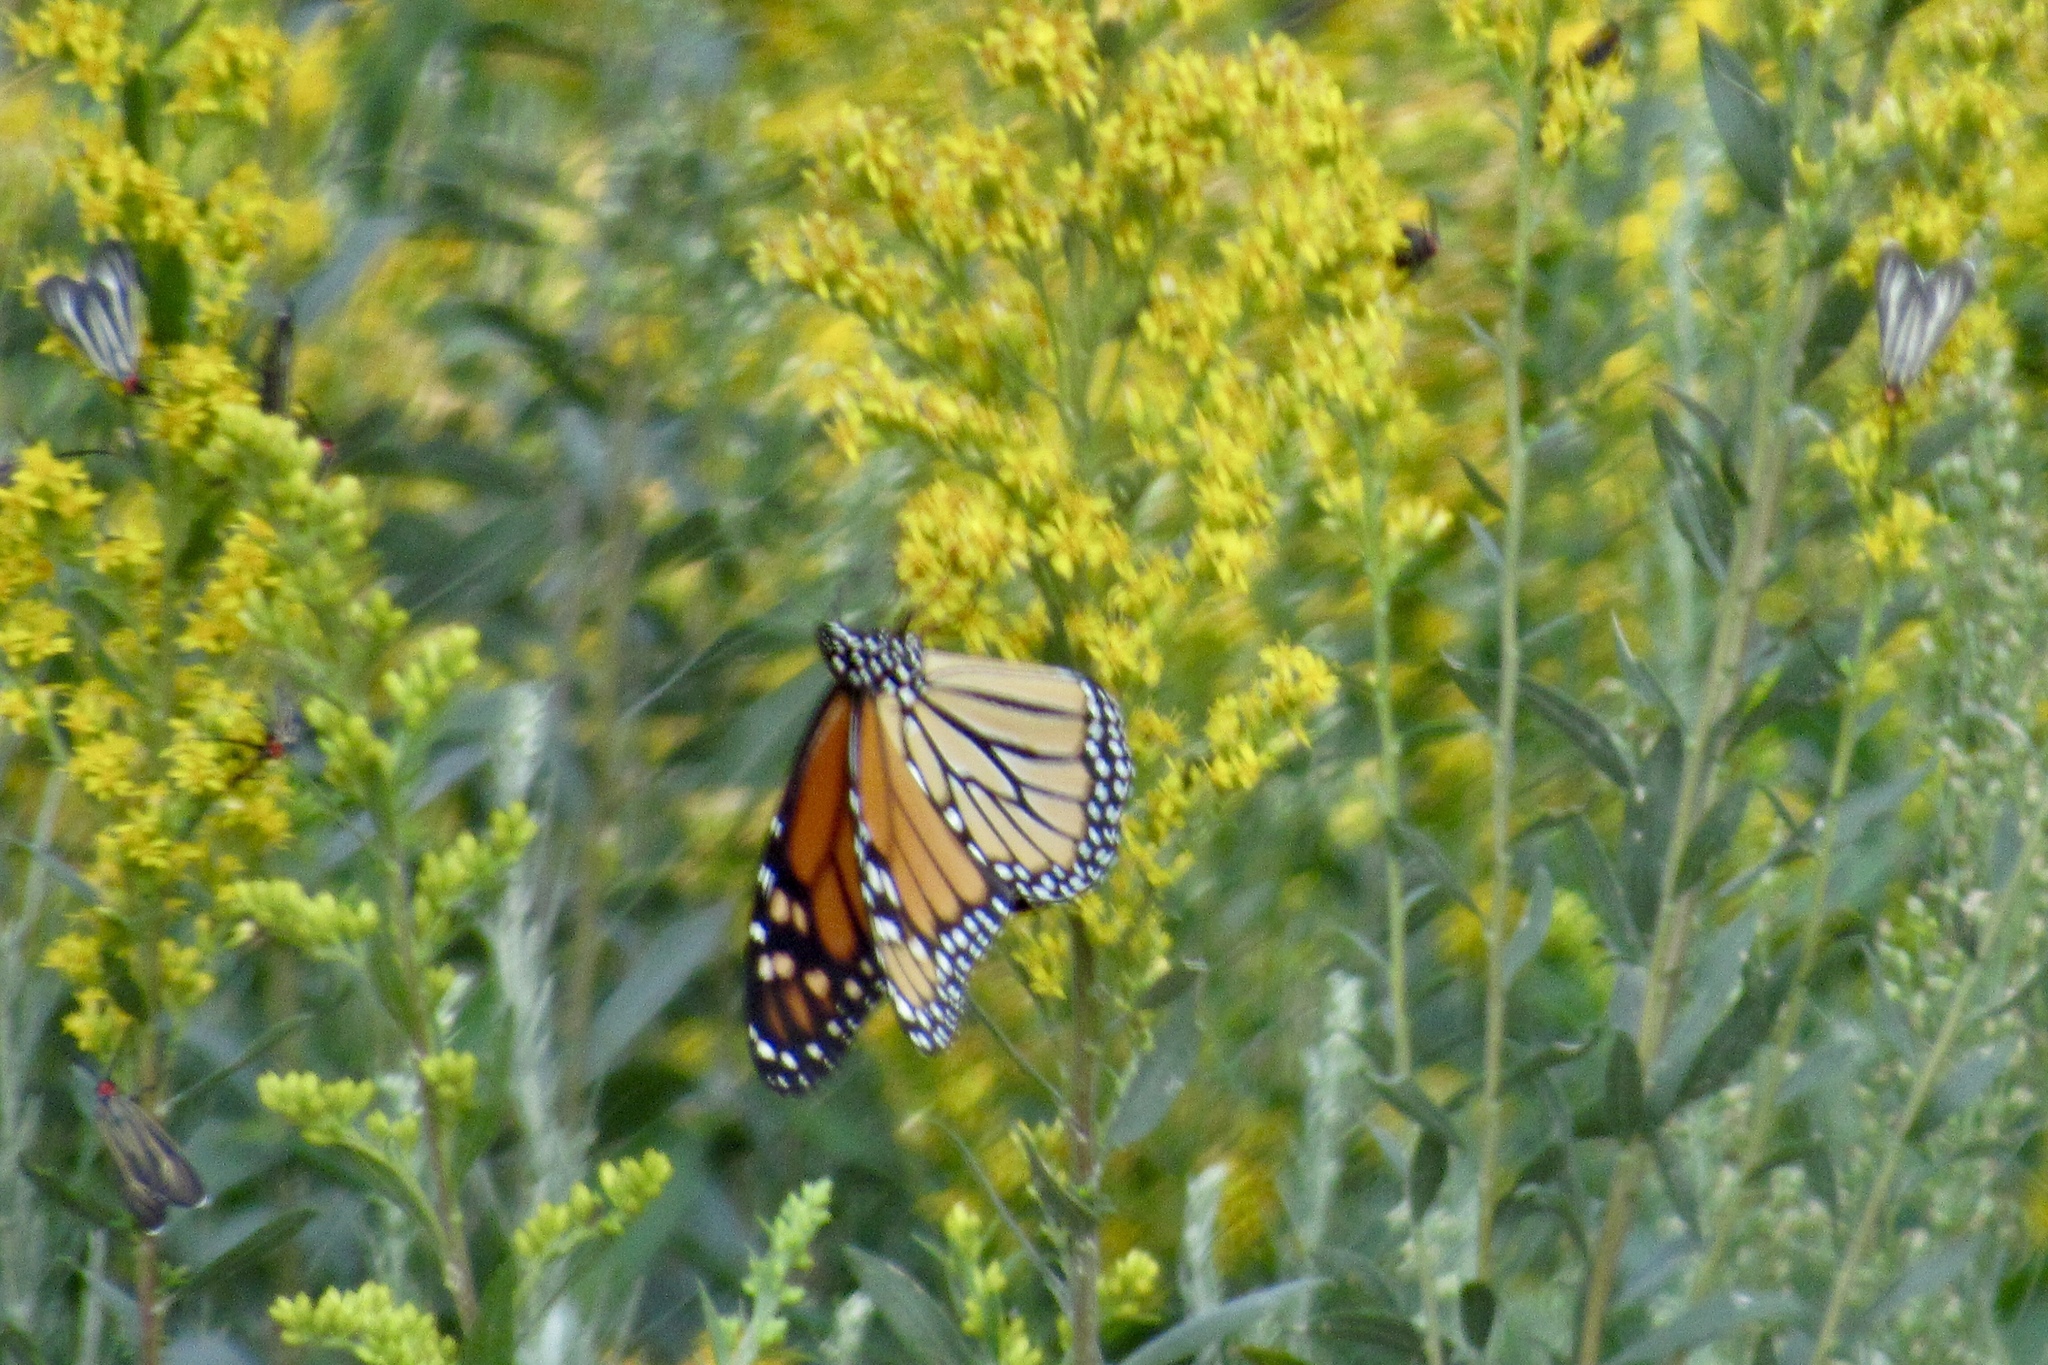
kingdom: Animalia
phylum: Arthropoda
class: Insecta
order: Lepidoptera
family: Nymphalidae
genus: Danaus
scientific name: Danaus plexippus
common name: Monarch
